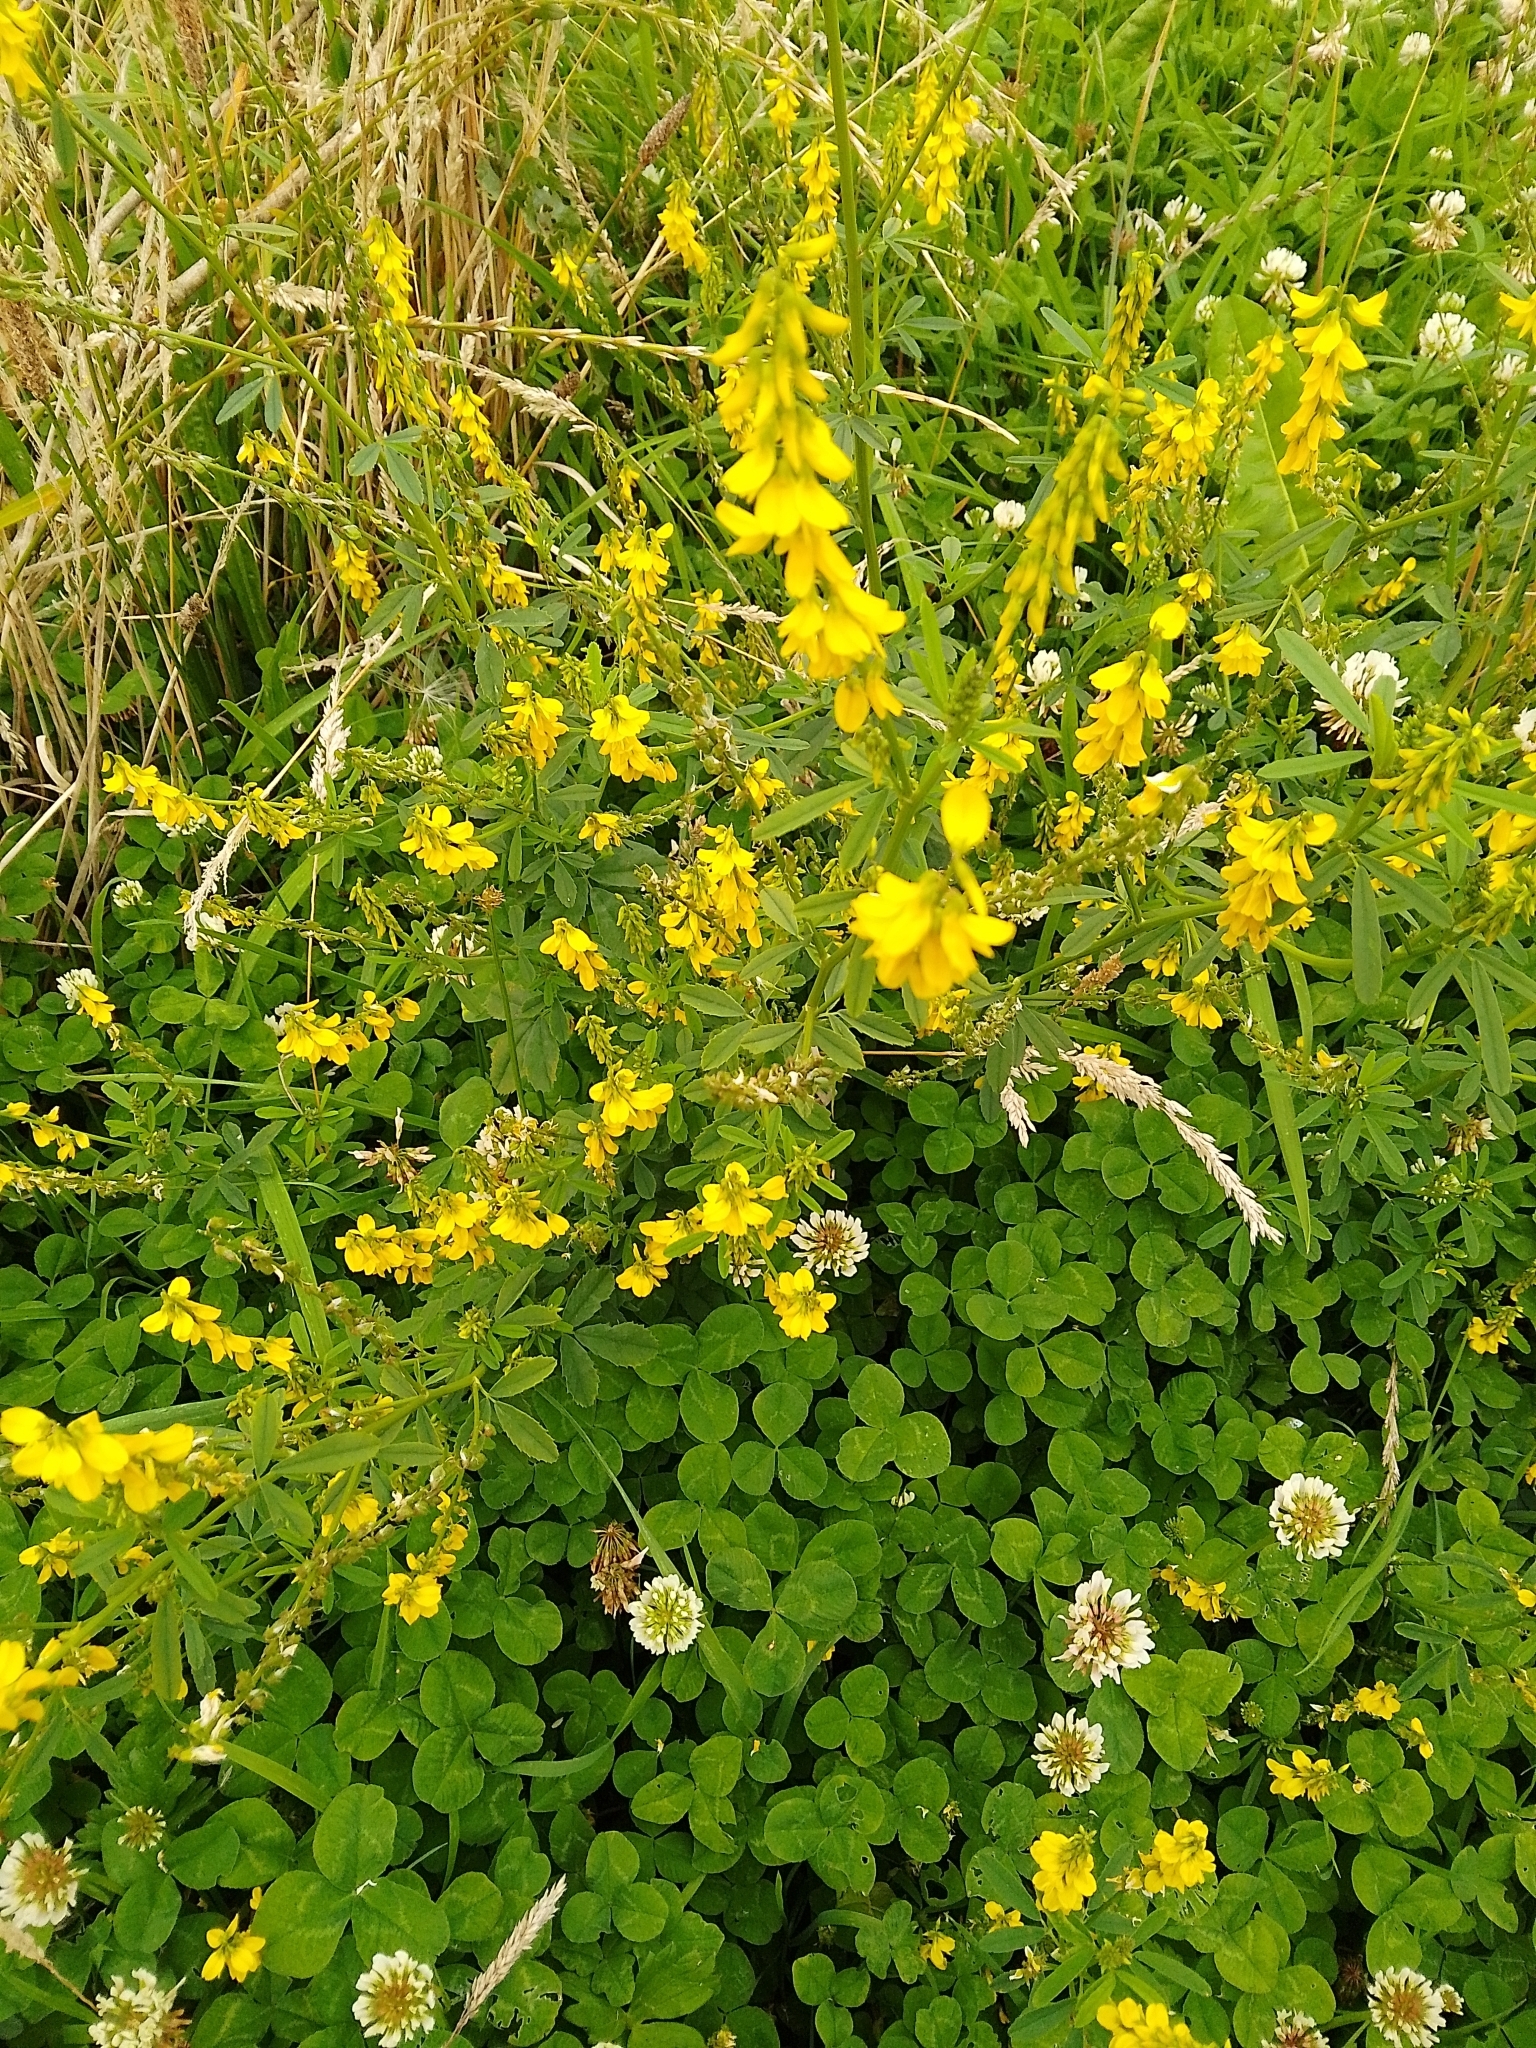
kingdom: Plantae
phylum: Tracheophyta
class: Magnoliopsida
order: Fabales
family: Fabaceae
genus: Melilotus
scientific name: Melilotus officinalis
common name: Sweetclover
